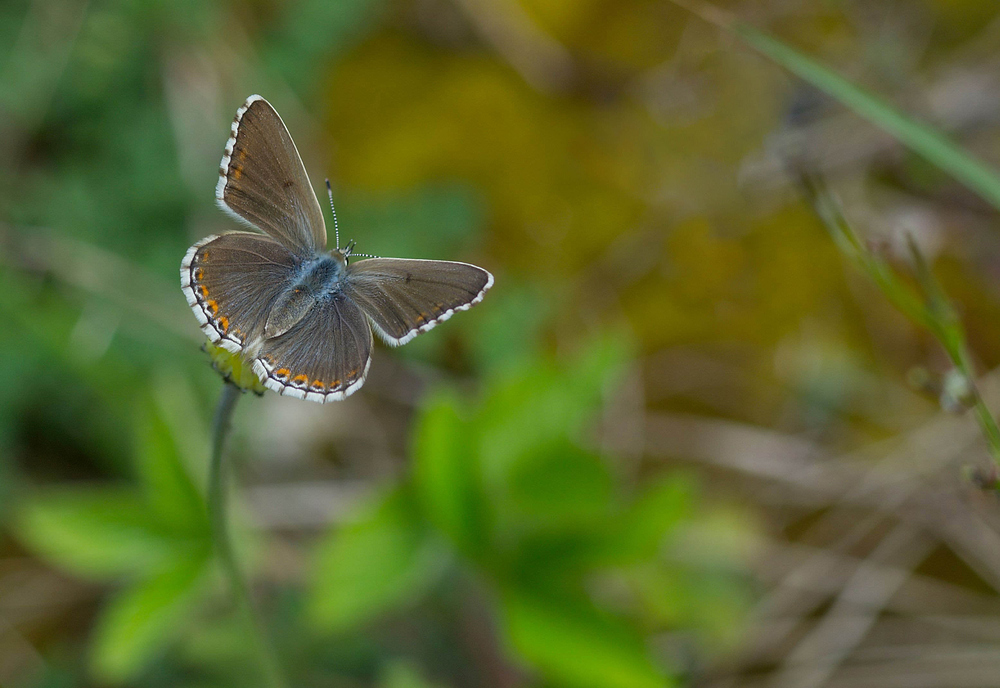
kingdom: Animalia
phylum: Arthropoda
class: Insecta
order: Lepidoptera
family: Lycaenidae
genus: Lysandra
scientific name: Lysandra bellargus
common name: Adonis blue
